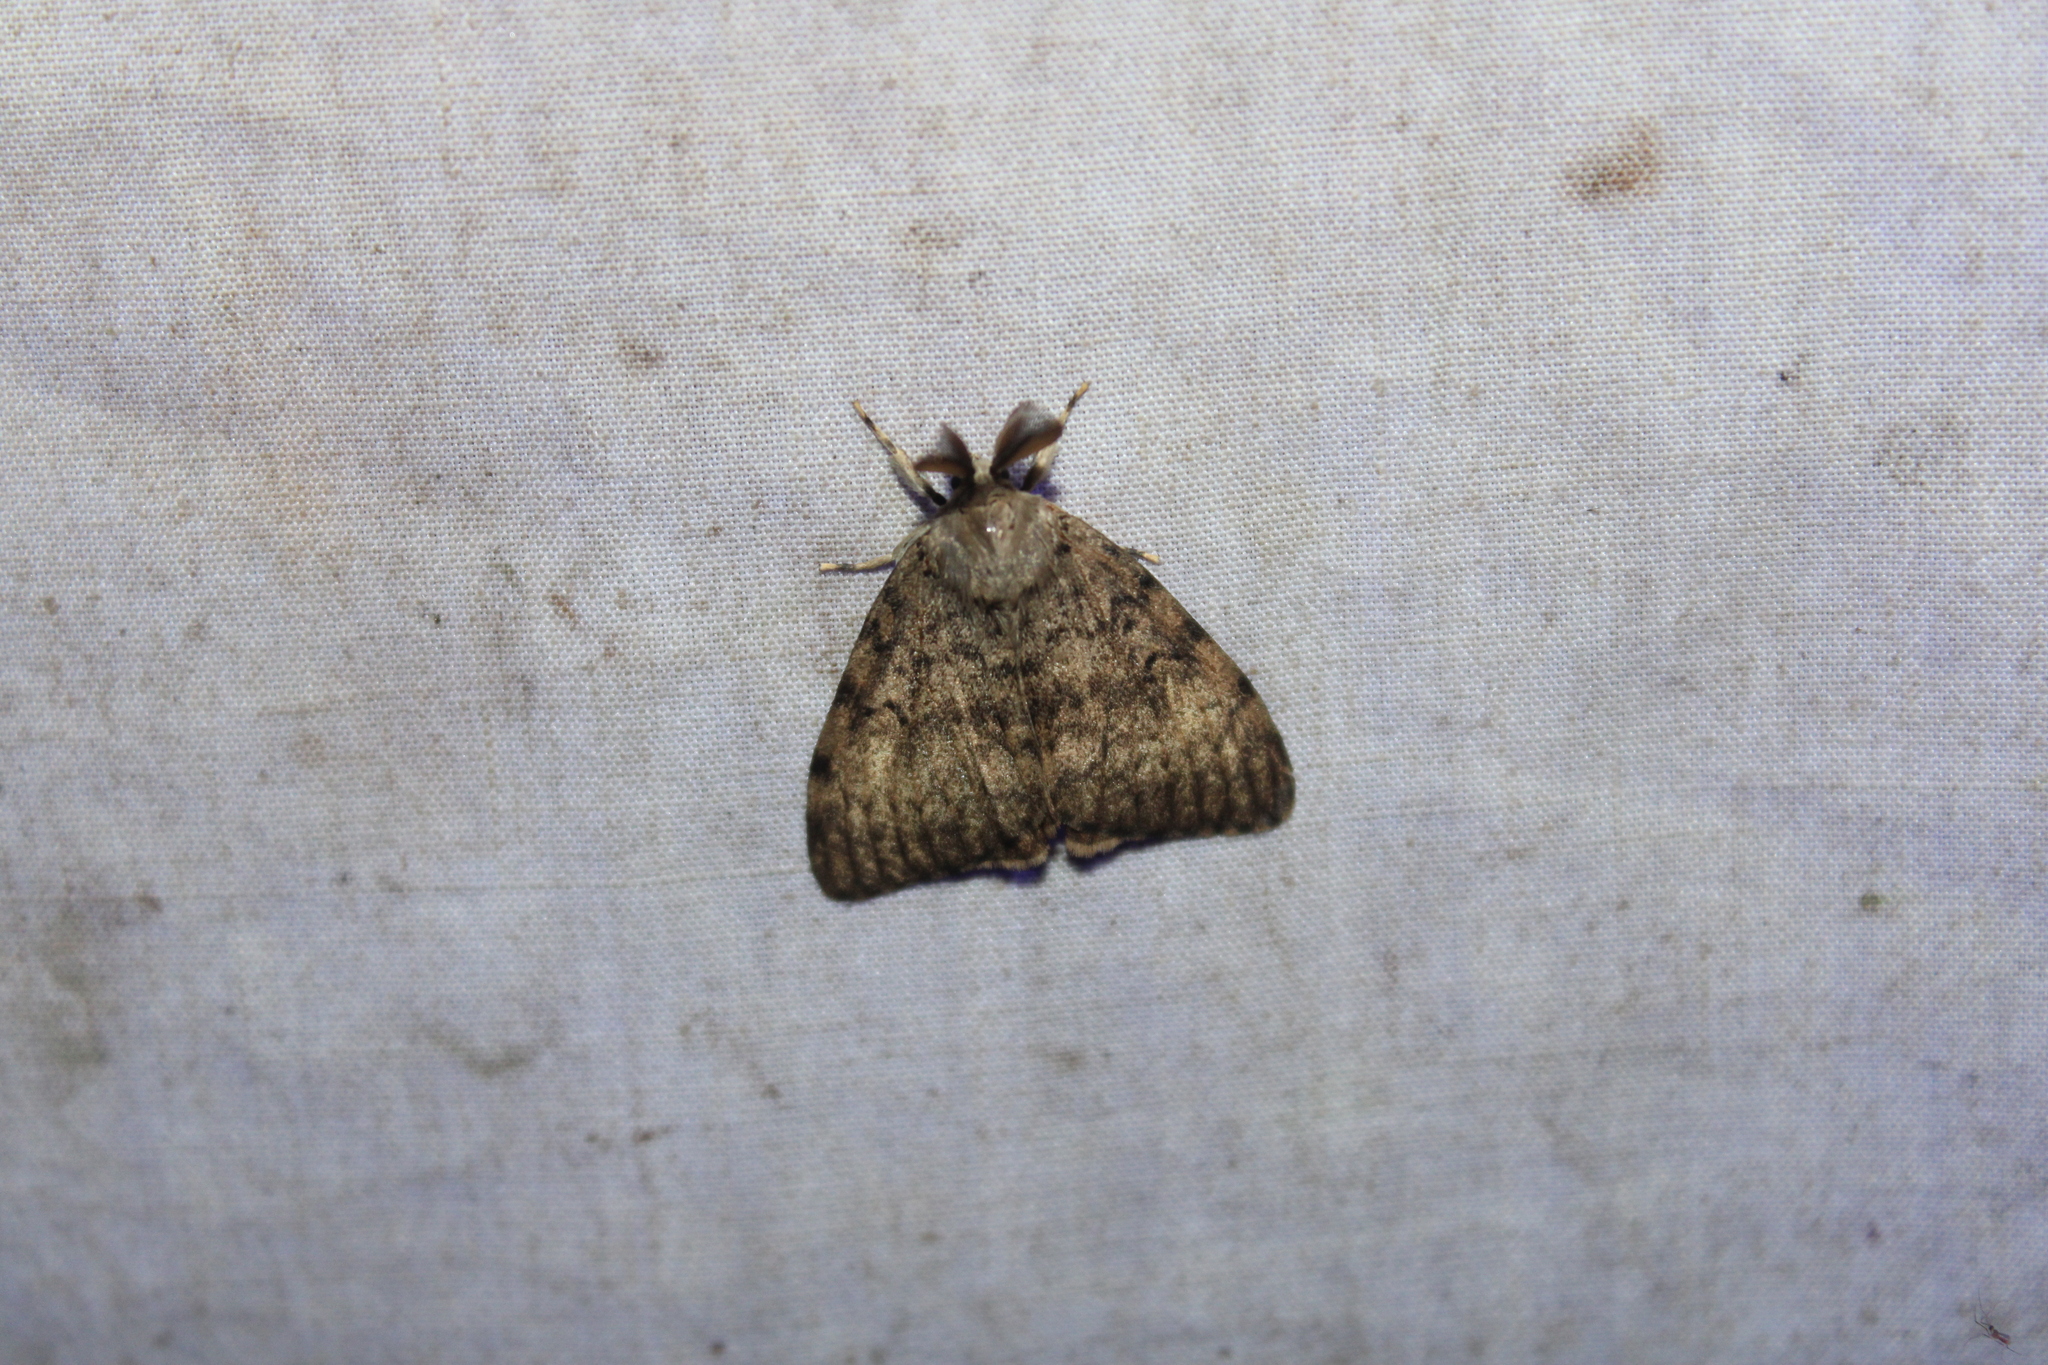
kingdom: Animalia
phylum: Arthropoda
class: Insecta
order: Lepidoptera
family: Erebidae
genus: Lymantria
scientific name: Lymantria dispar
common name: Gypsy moth
